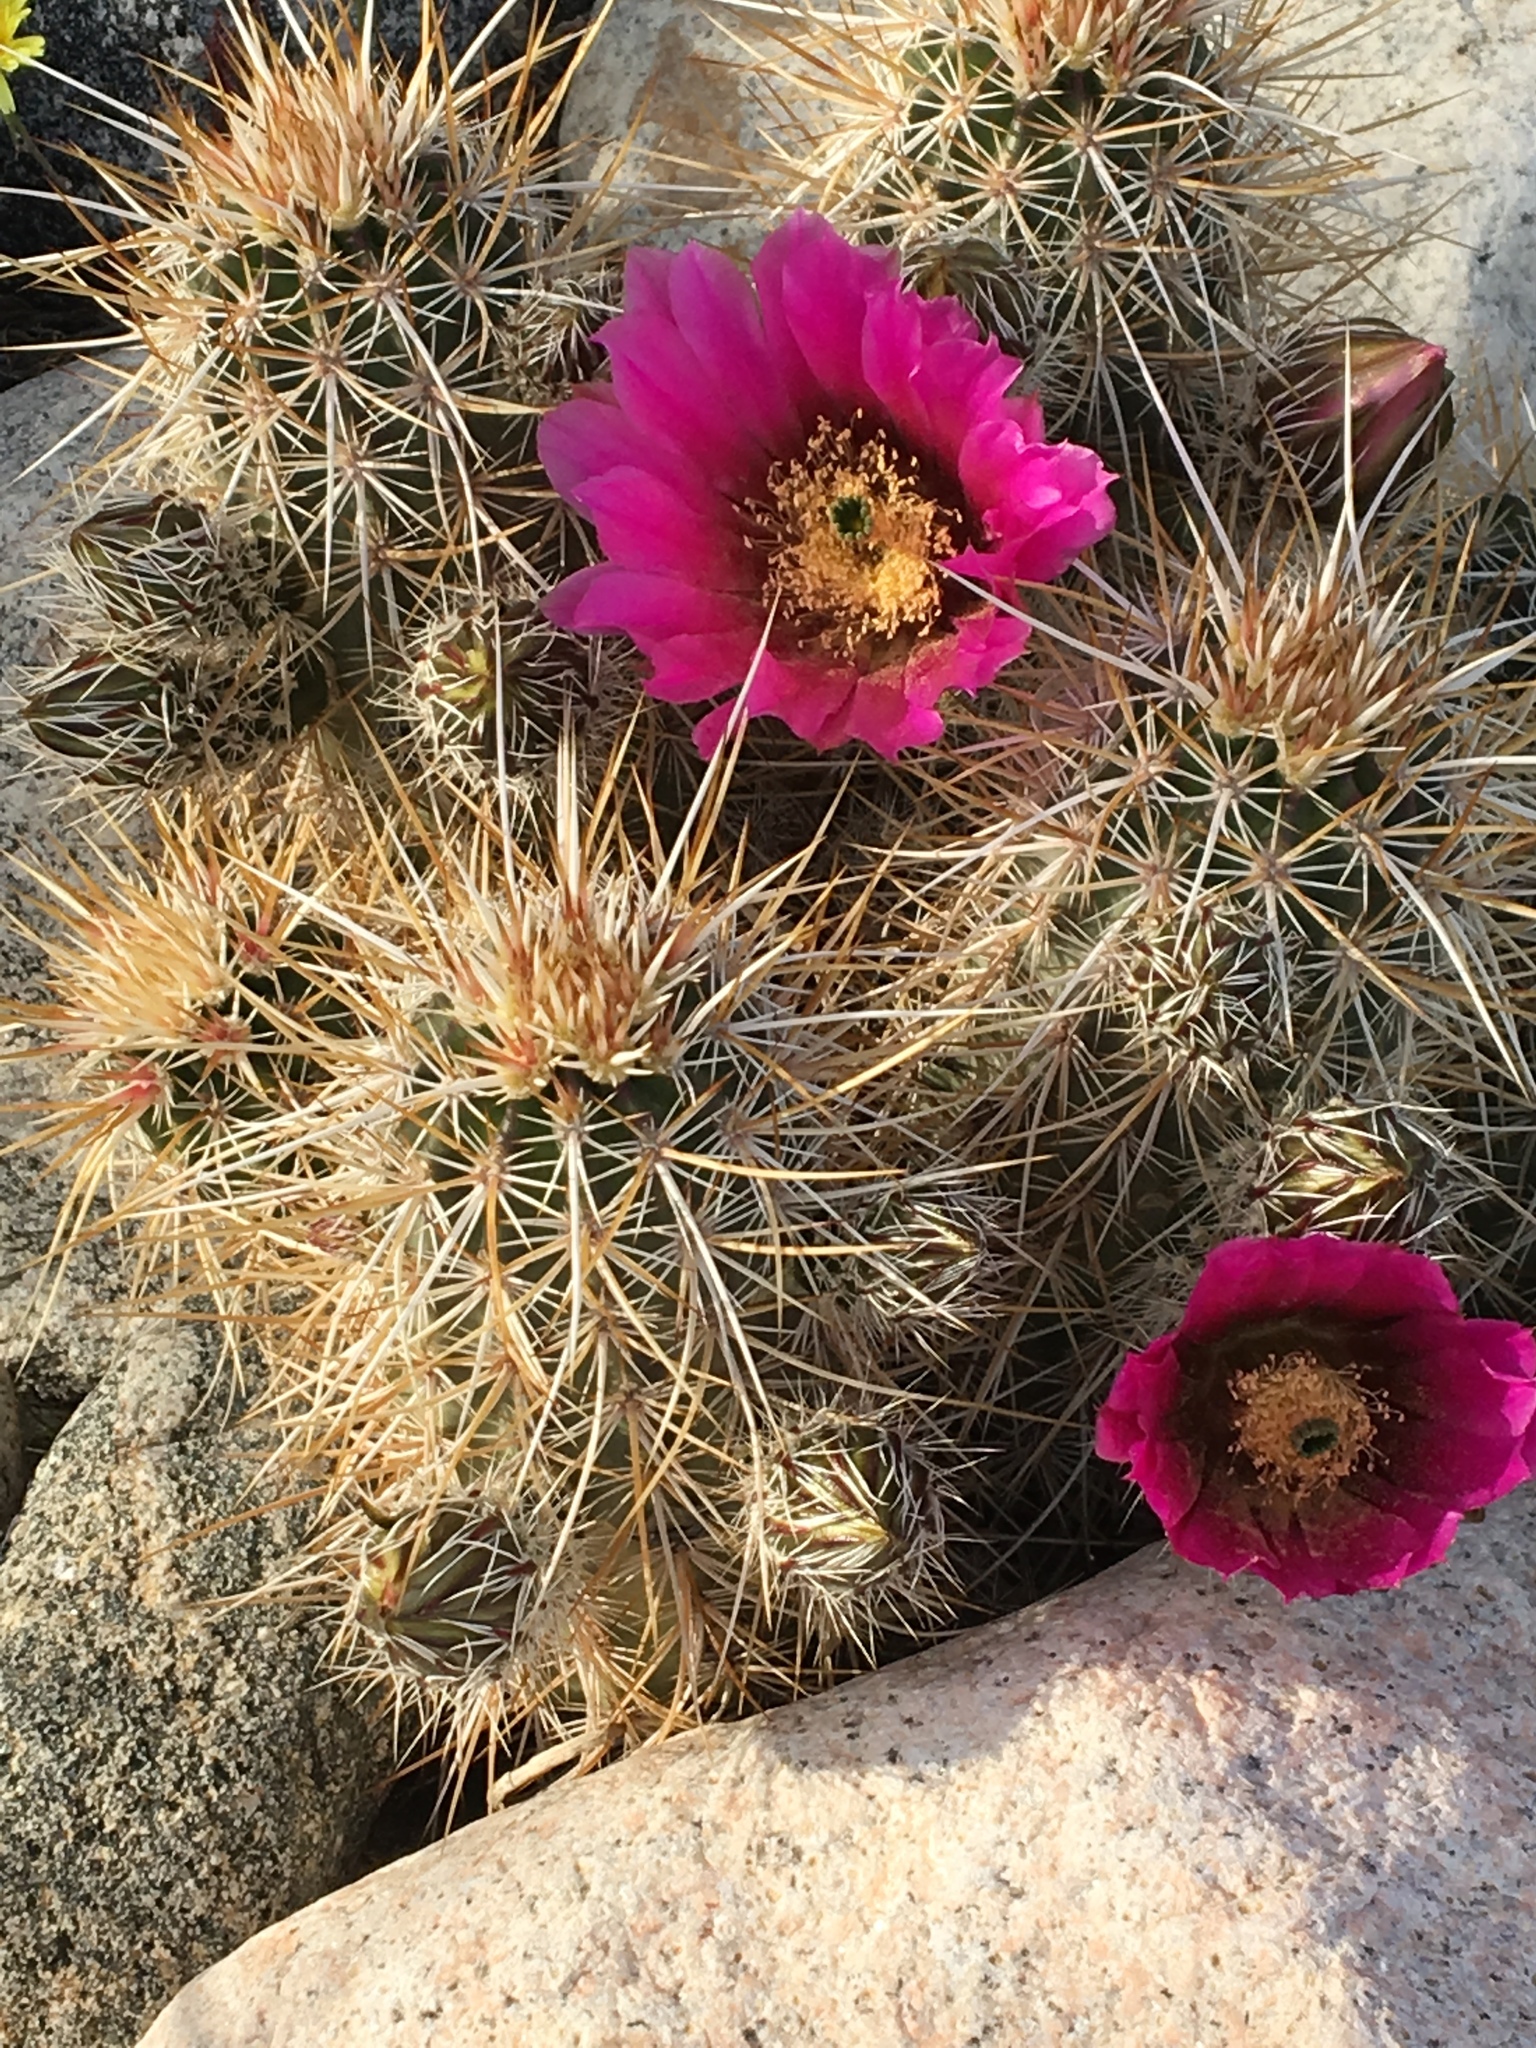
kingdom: Plantae
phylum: Tracheophyta
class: Magnoliopsida
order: Caryophyllales
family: Cactaceae
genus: Echinocereus
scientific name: Echinocereus engelmannii
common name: Engelmann's hedgehog cactus
